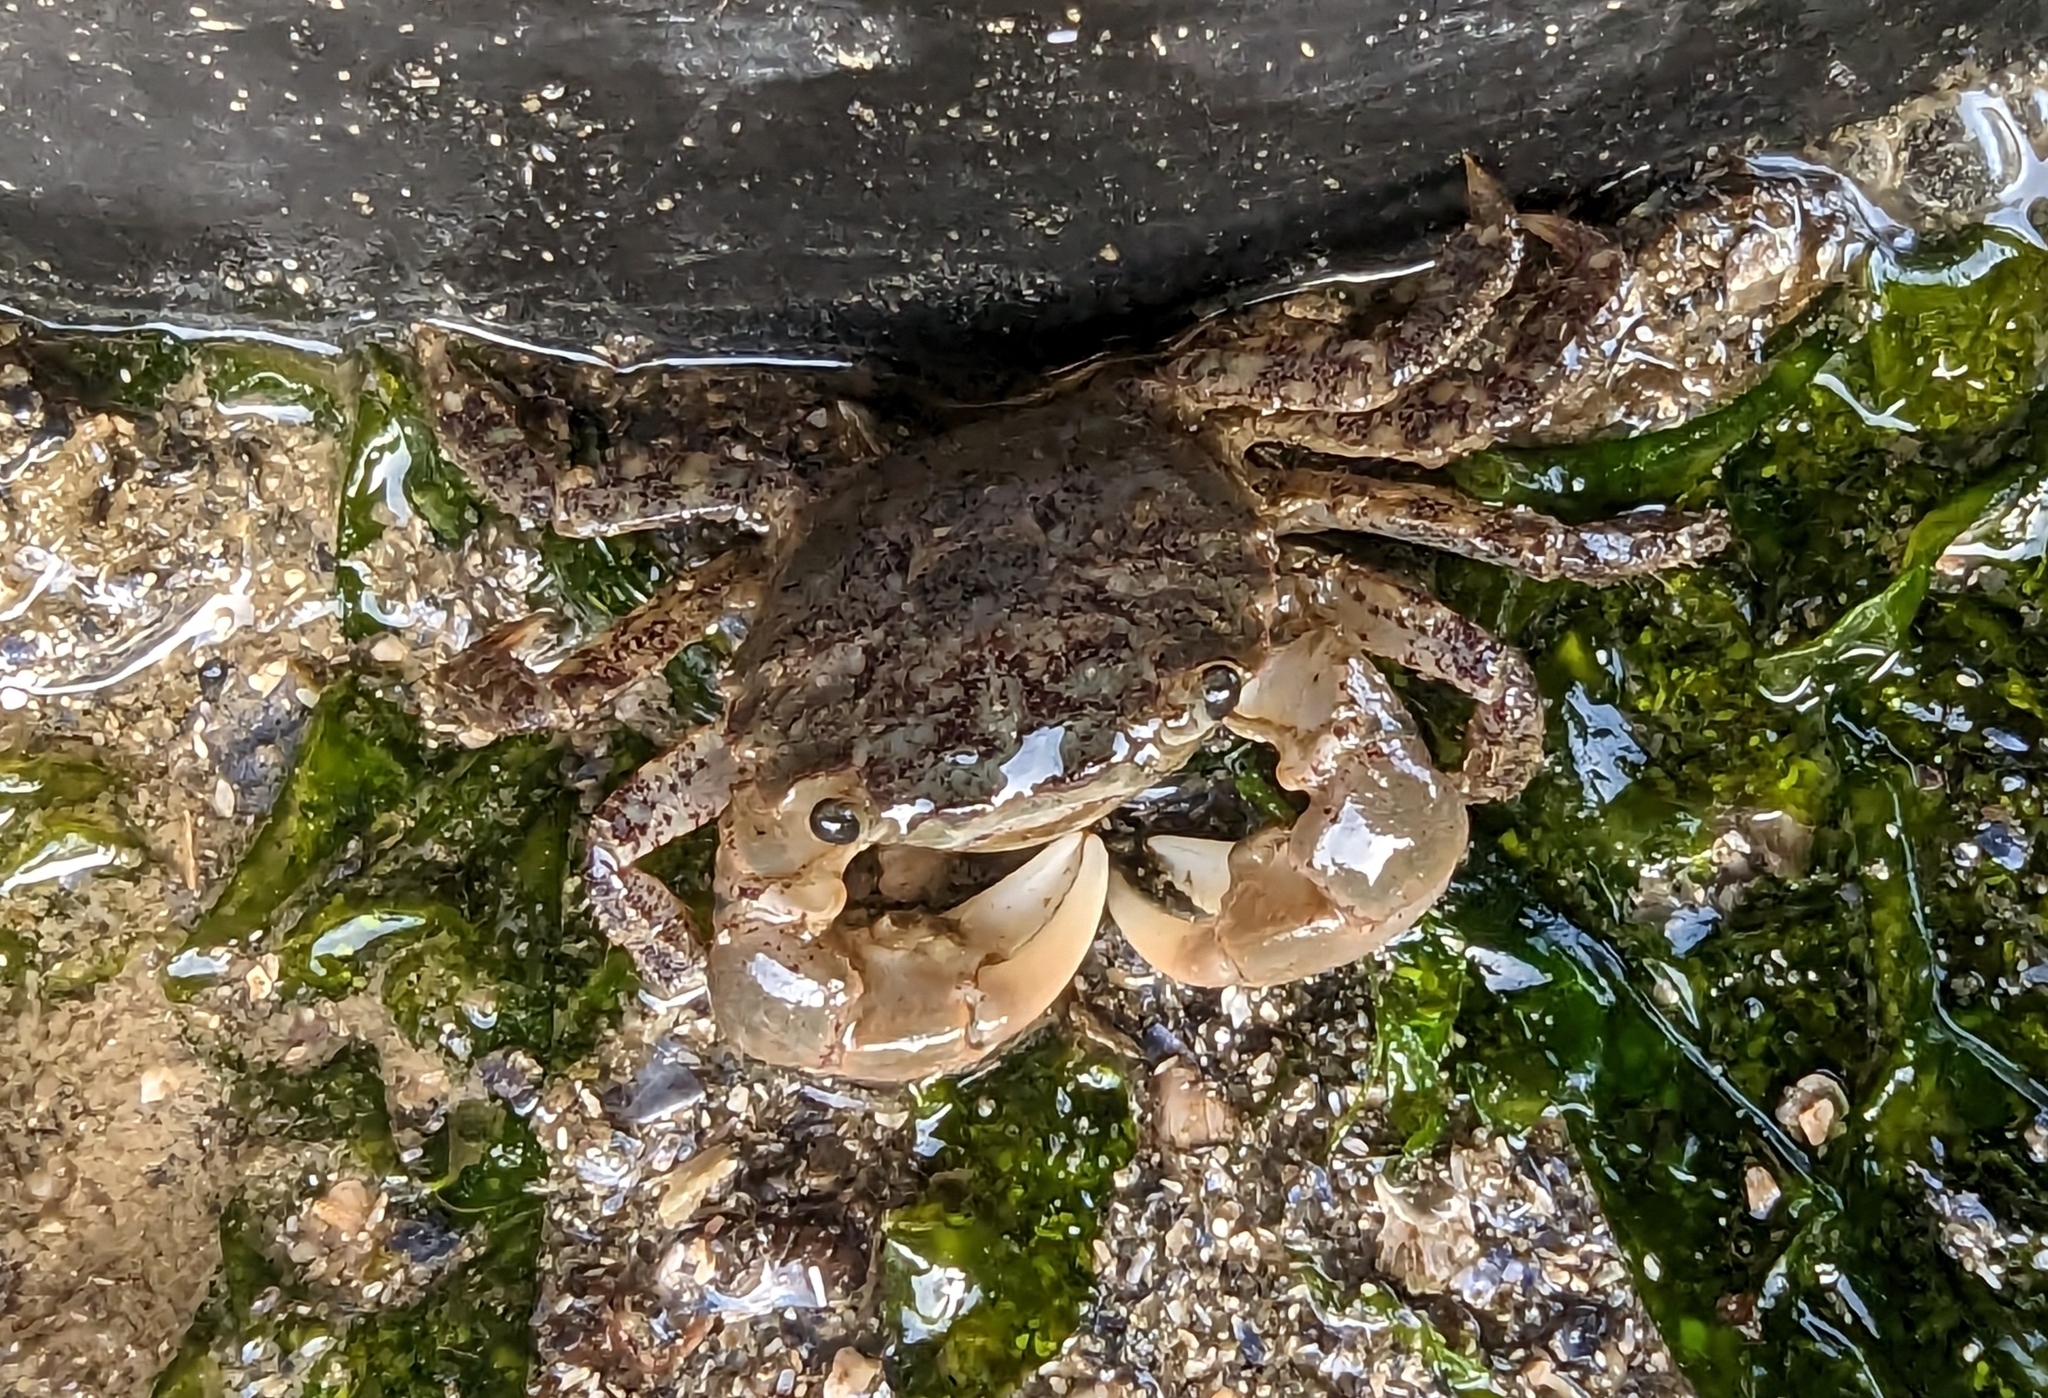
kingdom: Animalia
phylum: Arthropoda
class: Malacostraca
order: Decapoda
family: Varunidae
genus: Hemigrapsus
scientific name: Hemigrapsus oregonensis
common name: Yellow shore crab
